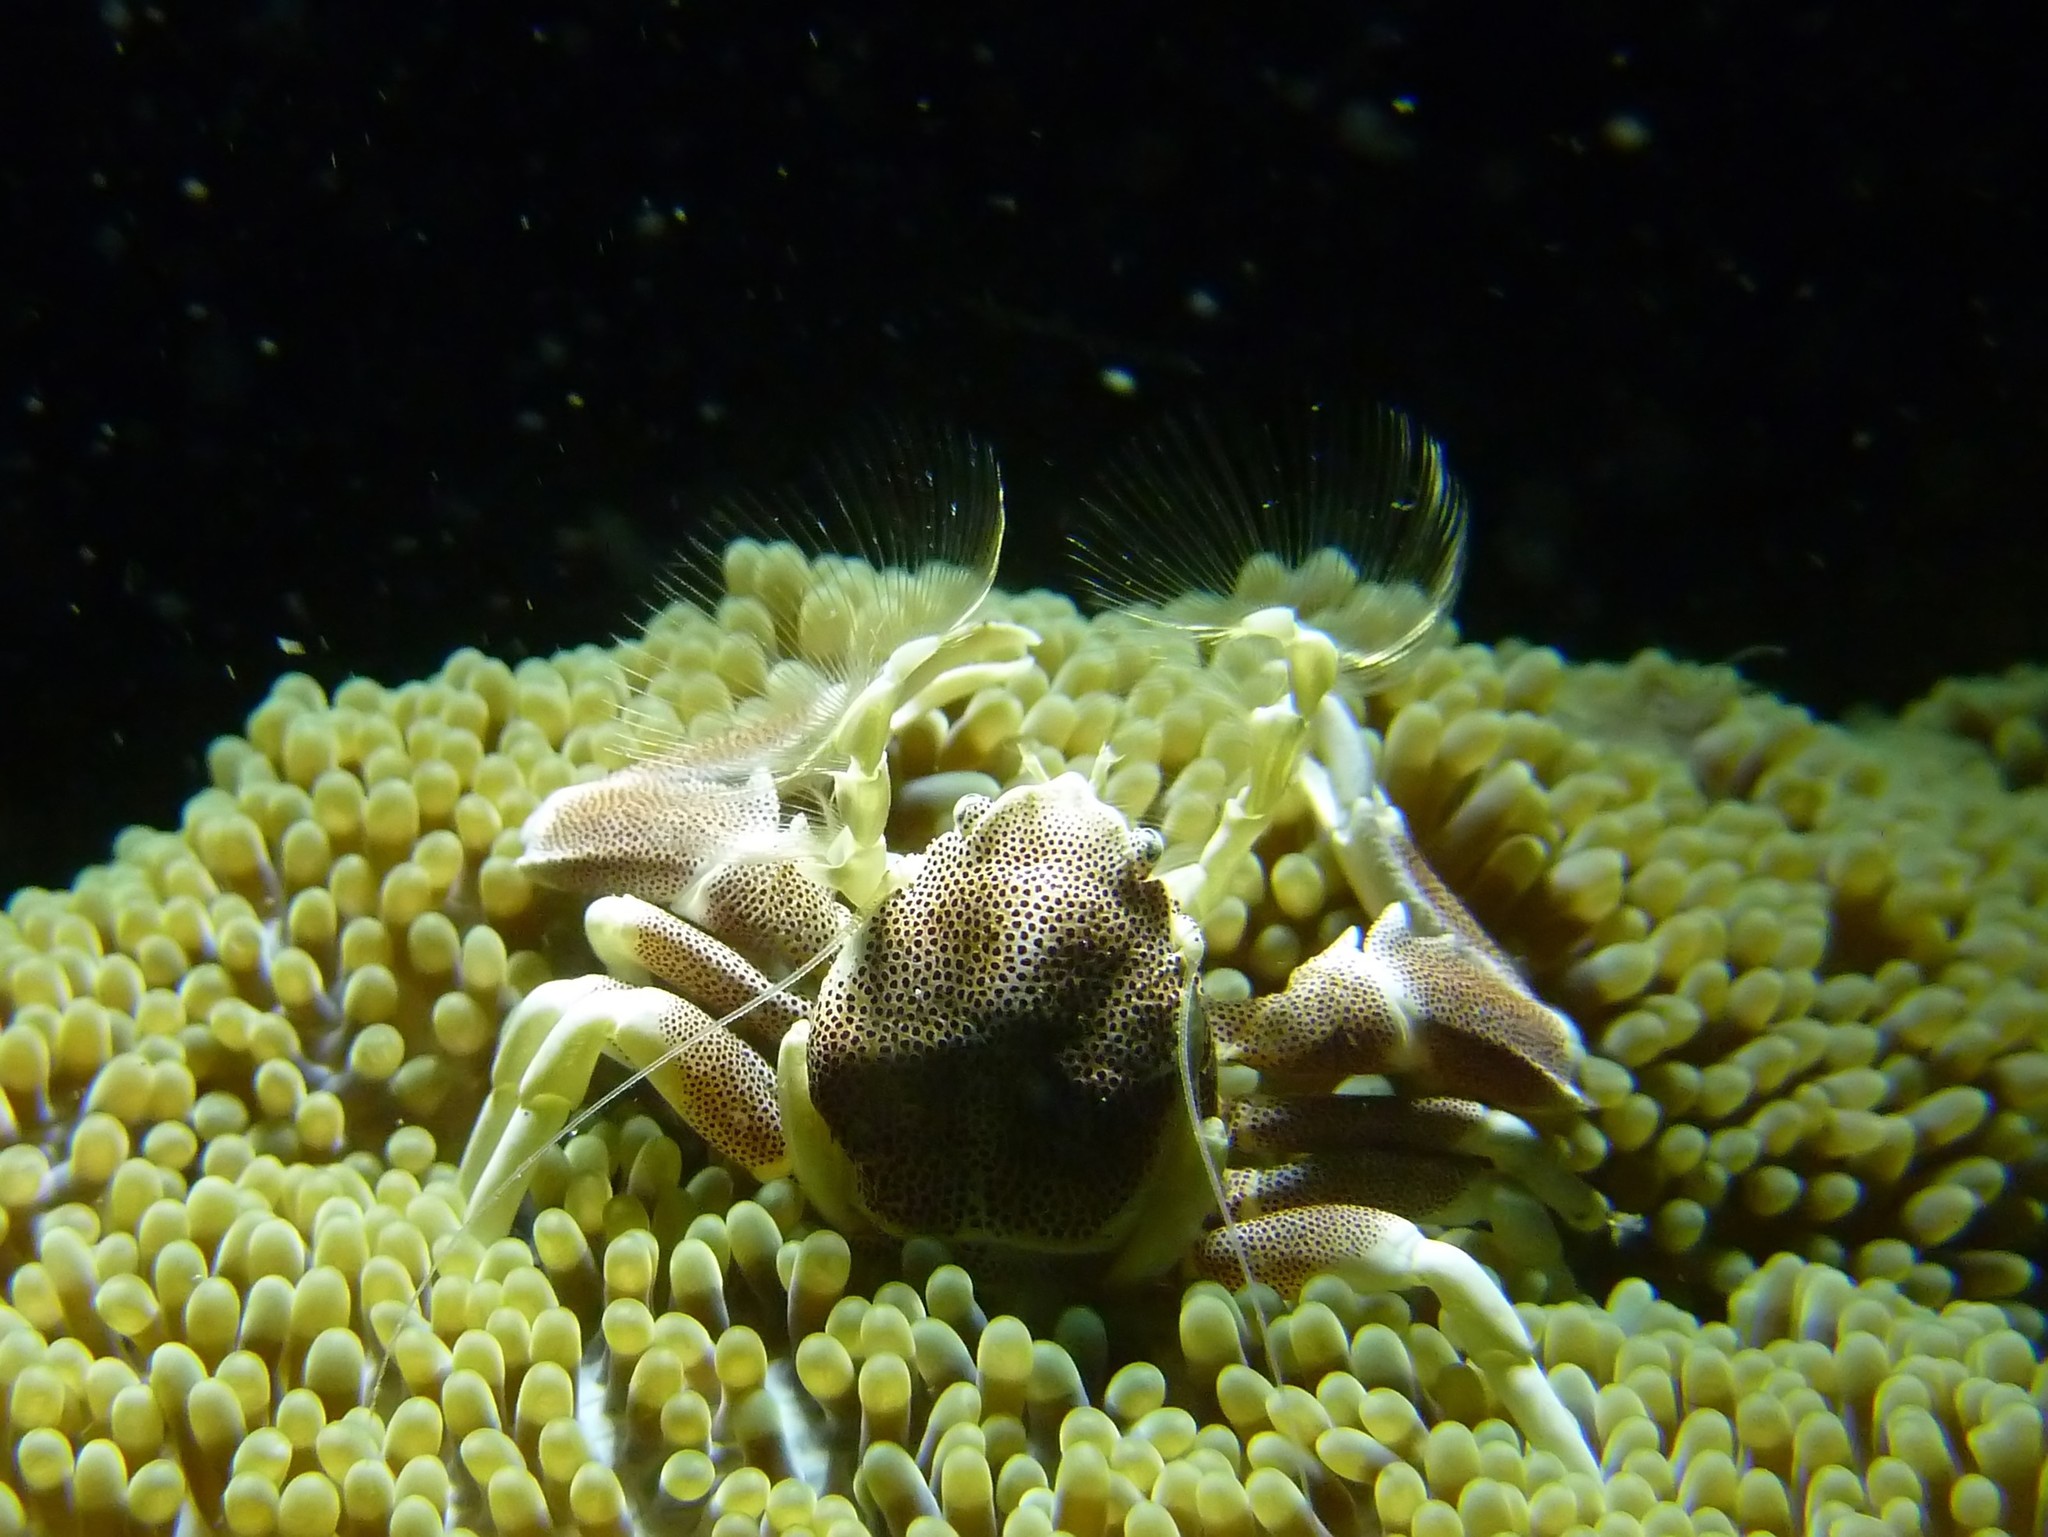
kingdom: Animalia
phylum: Arthropoda
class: Malacostraca
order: Decapoda
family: Porcellanidae
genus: Neopetrolisthes
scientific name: Neopetrolisthes maculatus
